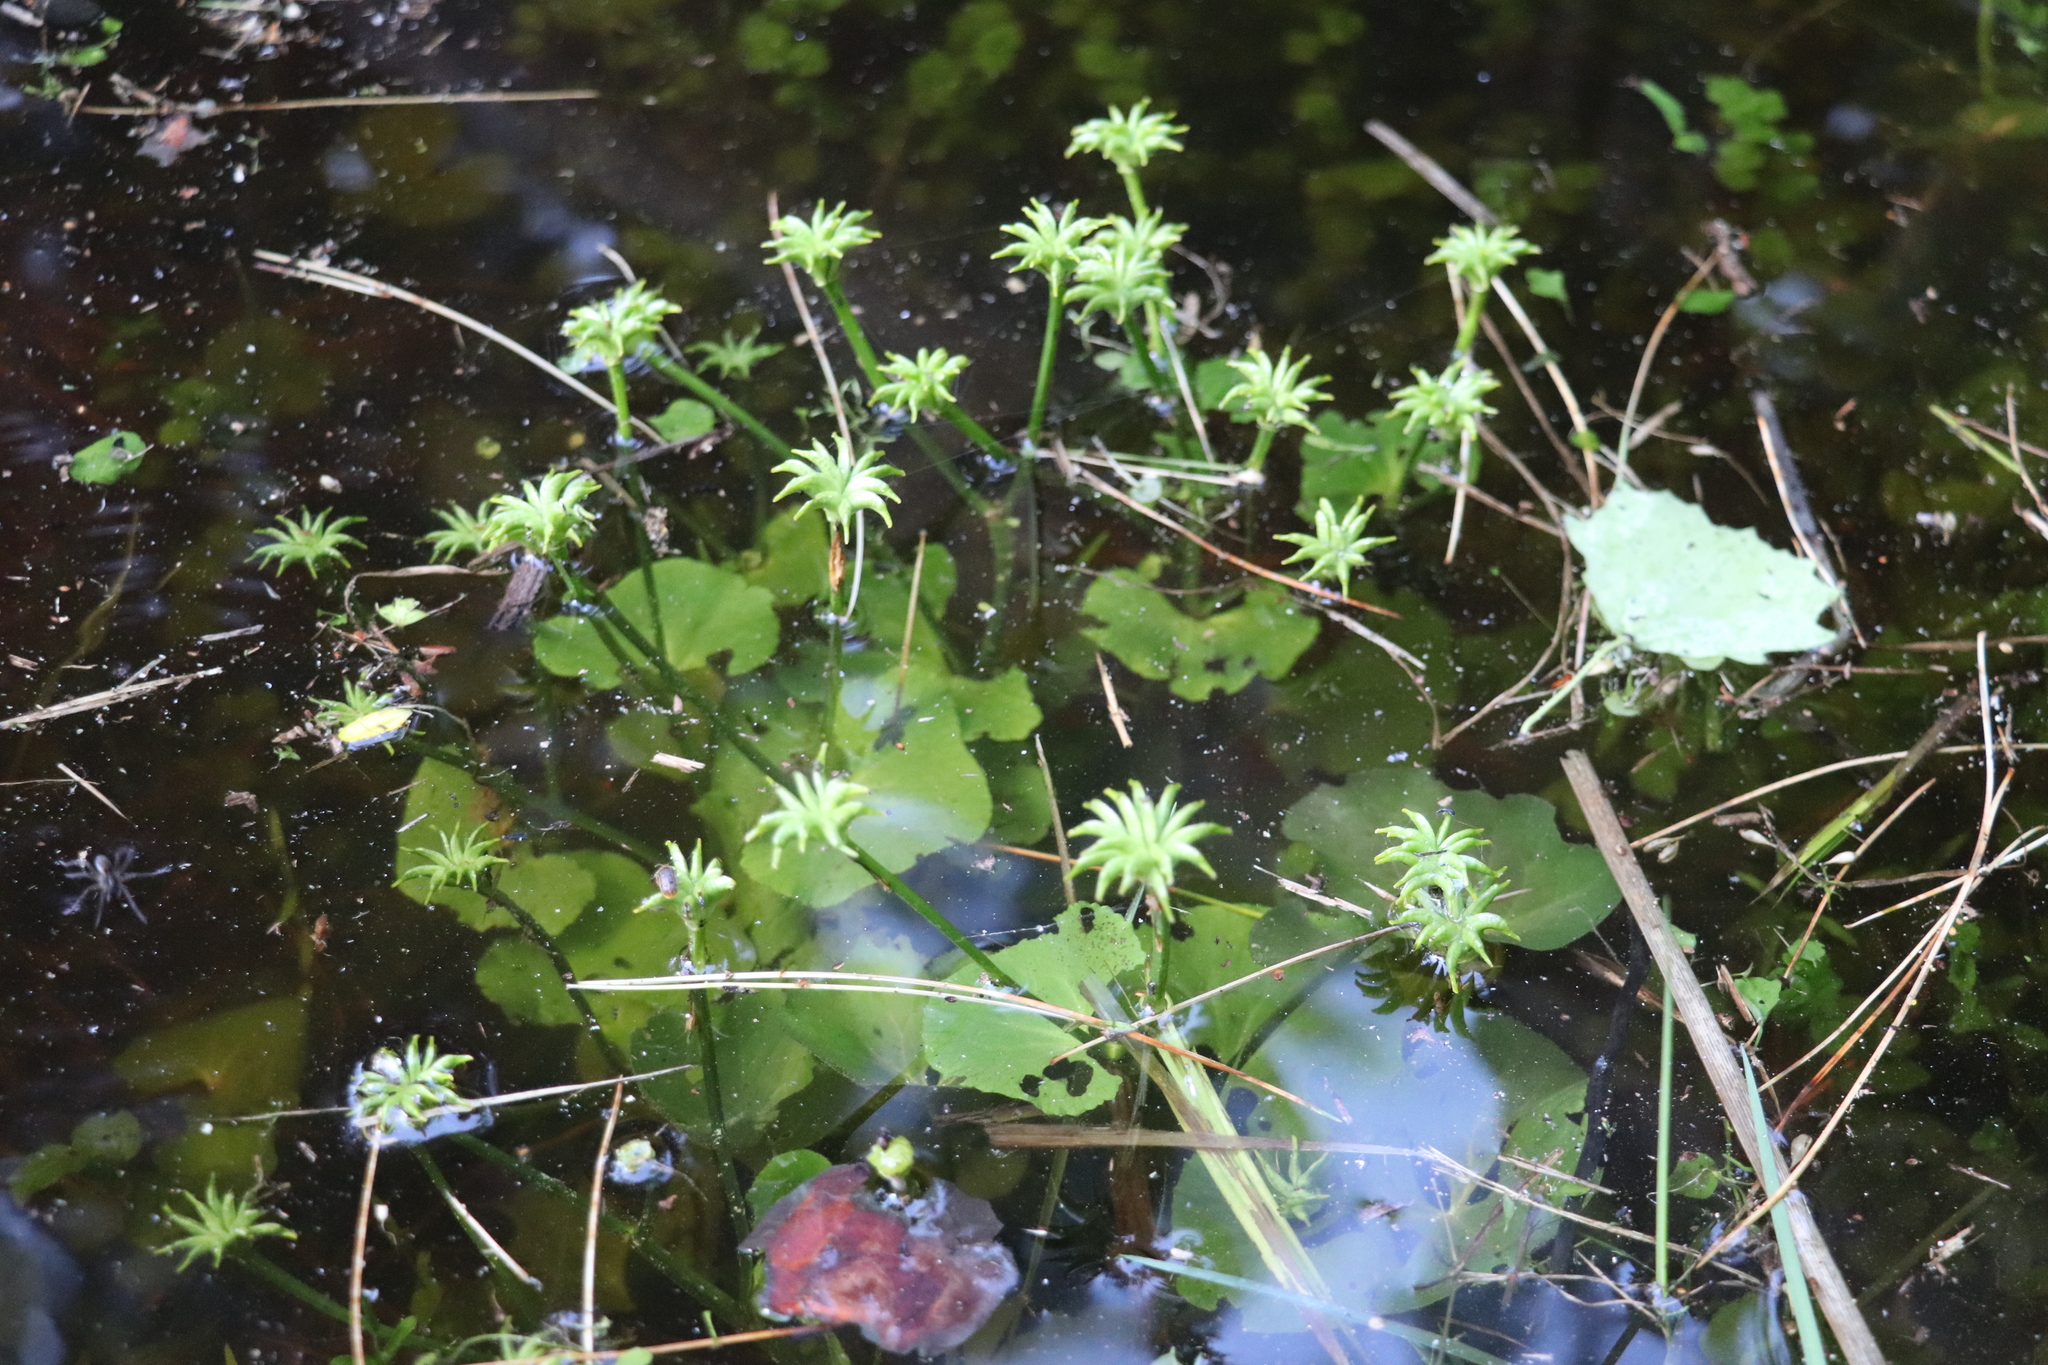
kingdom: Plantae
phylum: Tracheophyta
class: Magnoliopsida
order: Ranunculales
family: Ranunculaceae
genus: Caltha
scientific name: Caltha palustris
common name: Marsh marigold
